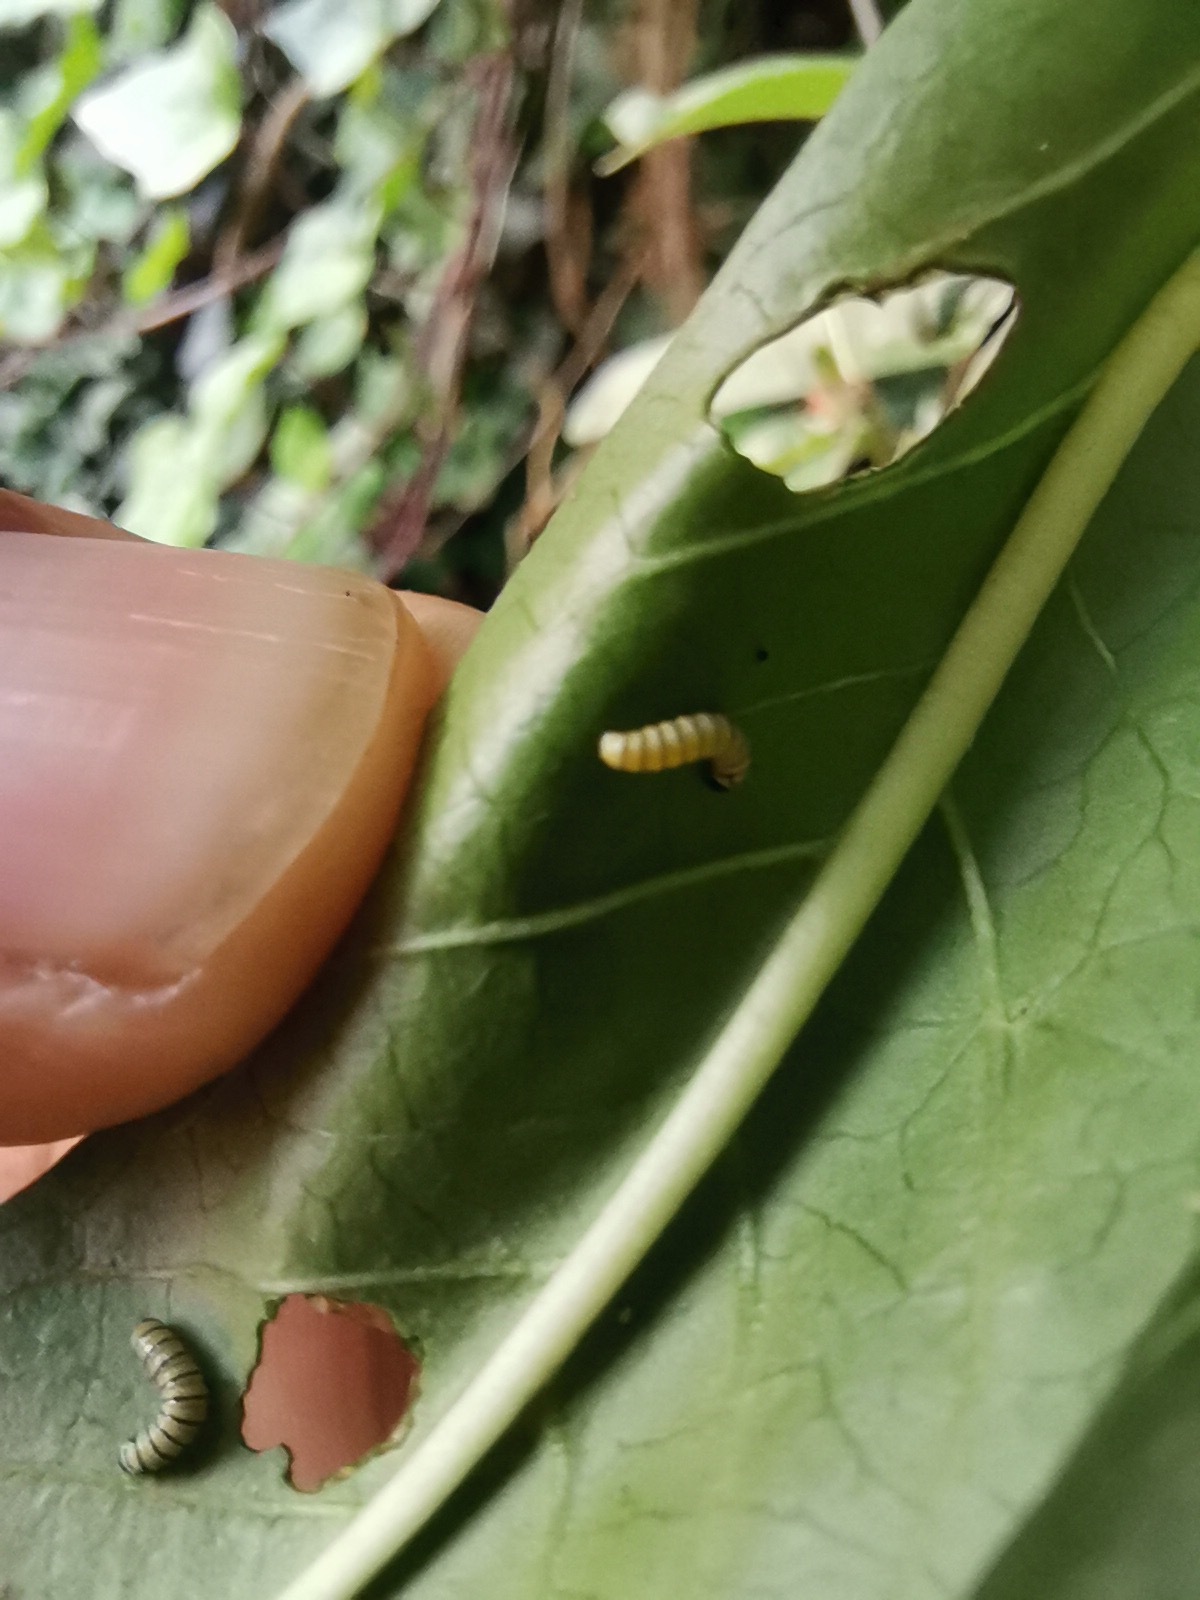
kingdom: Animalia
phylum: Arthropoda
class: Insecta
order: Lepidoptera
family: Nymphalidae
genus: Danaus
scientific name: Danaus plexippus
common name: Monarch
